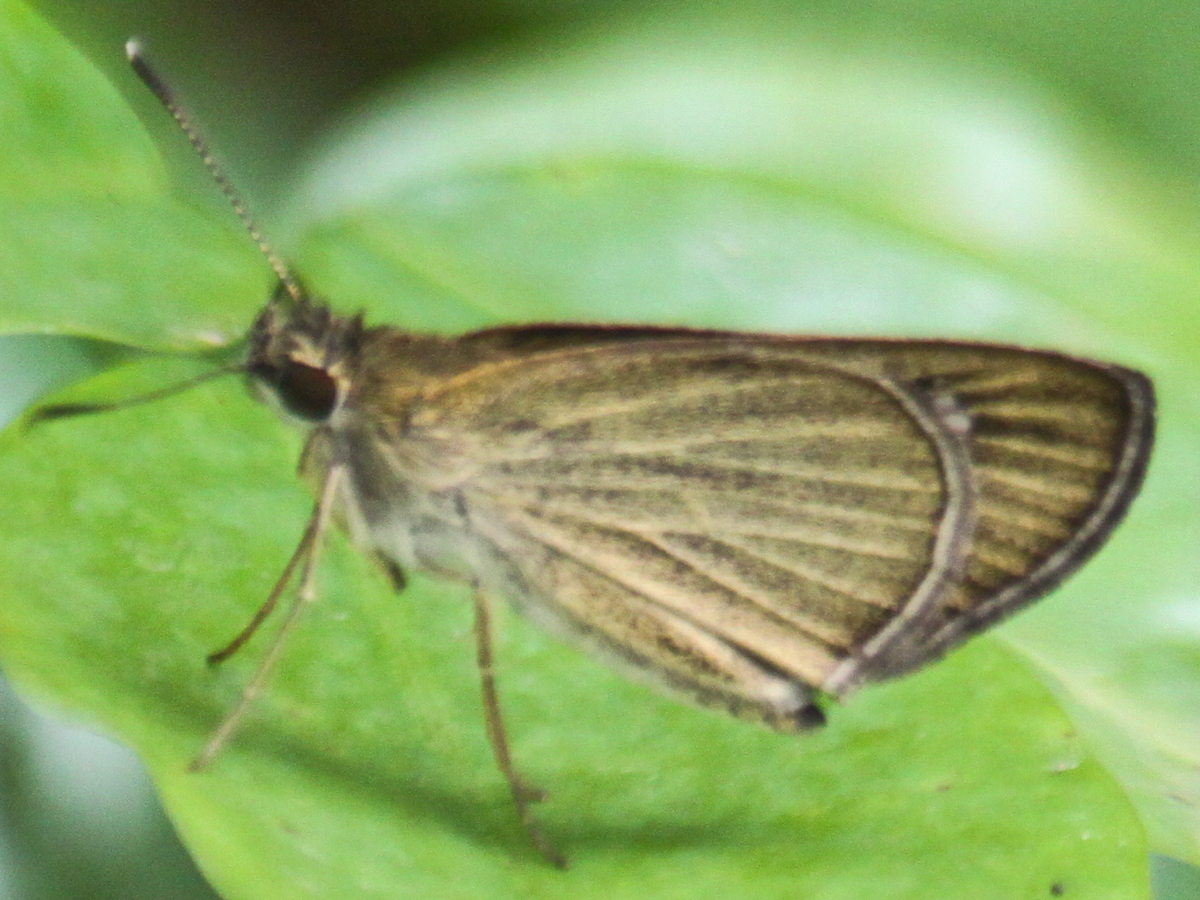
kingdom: Animalia
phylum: Arthropoda
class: Insecta
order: Lepidoptera
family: Hesperiidae
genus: Suada
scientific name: Suada swerga
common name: Grass bob
